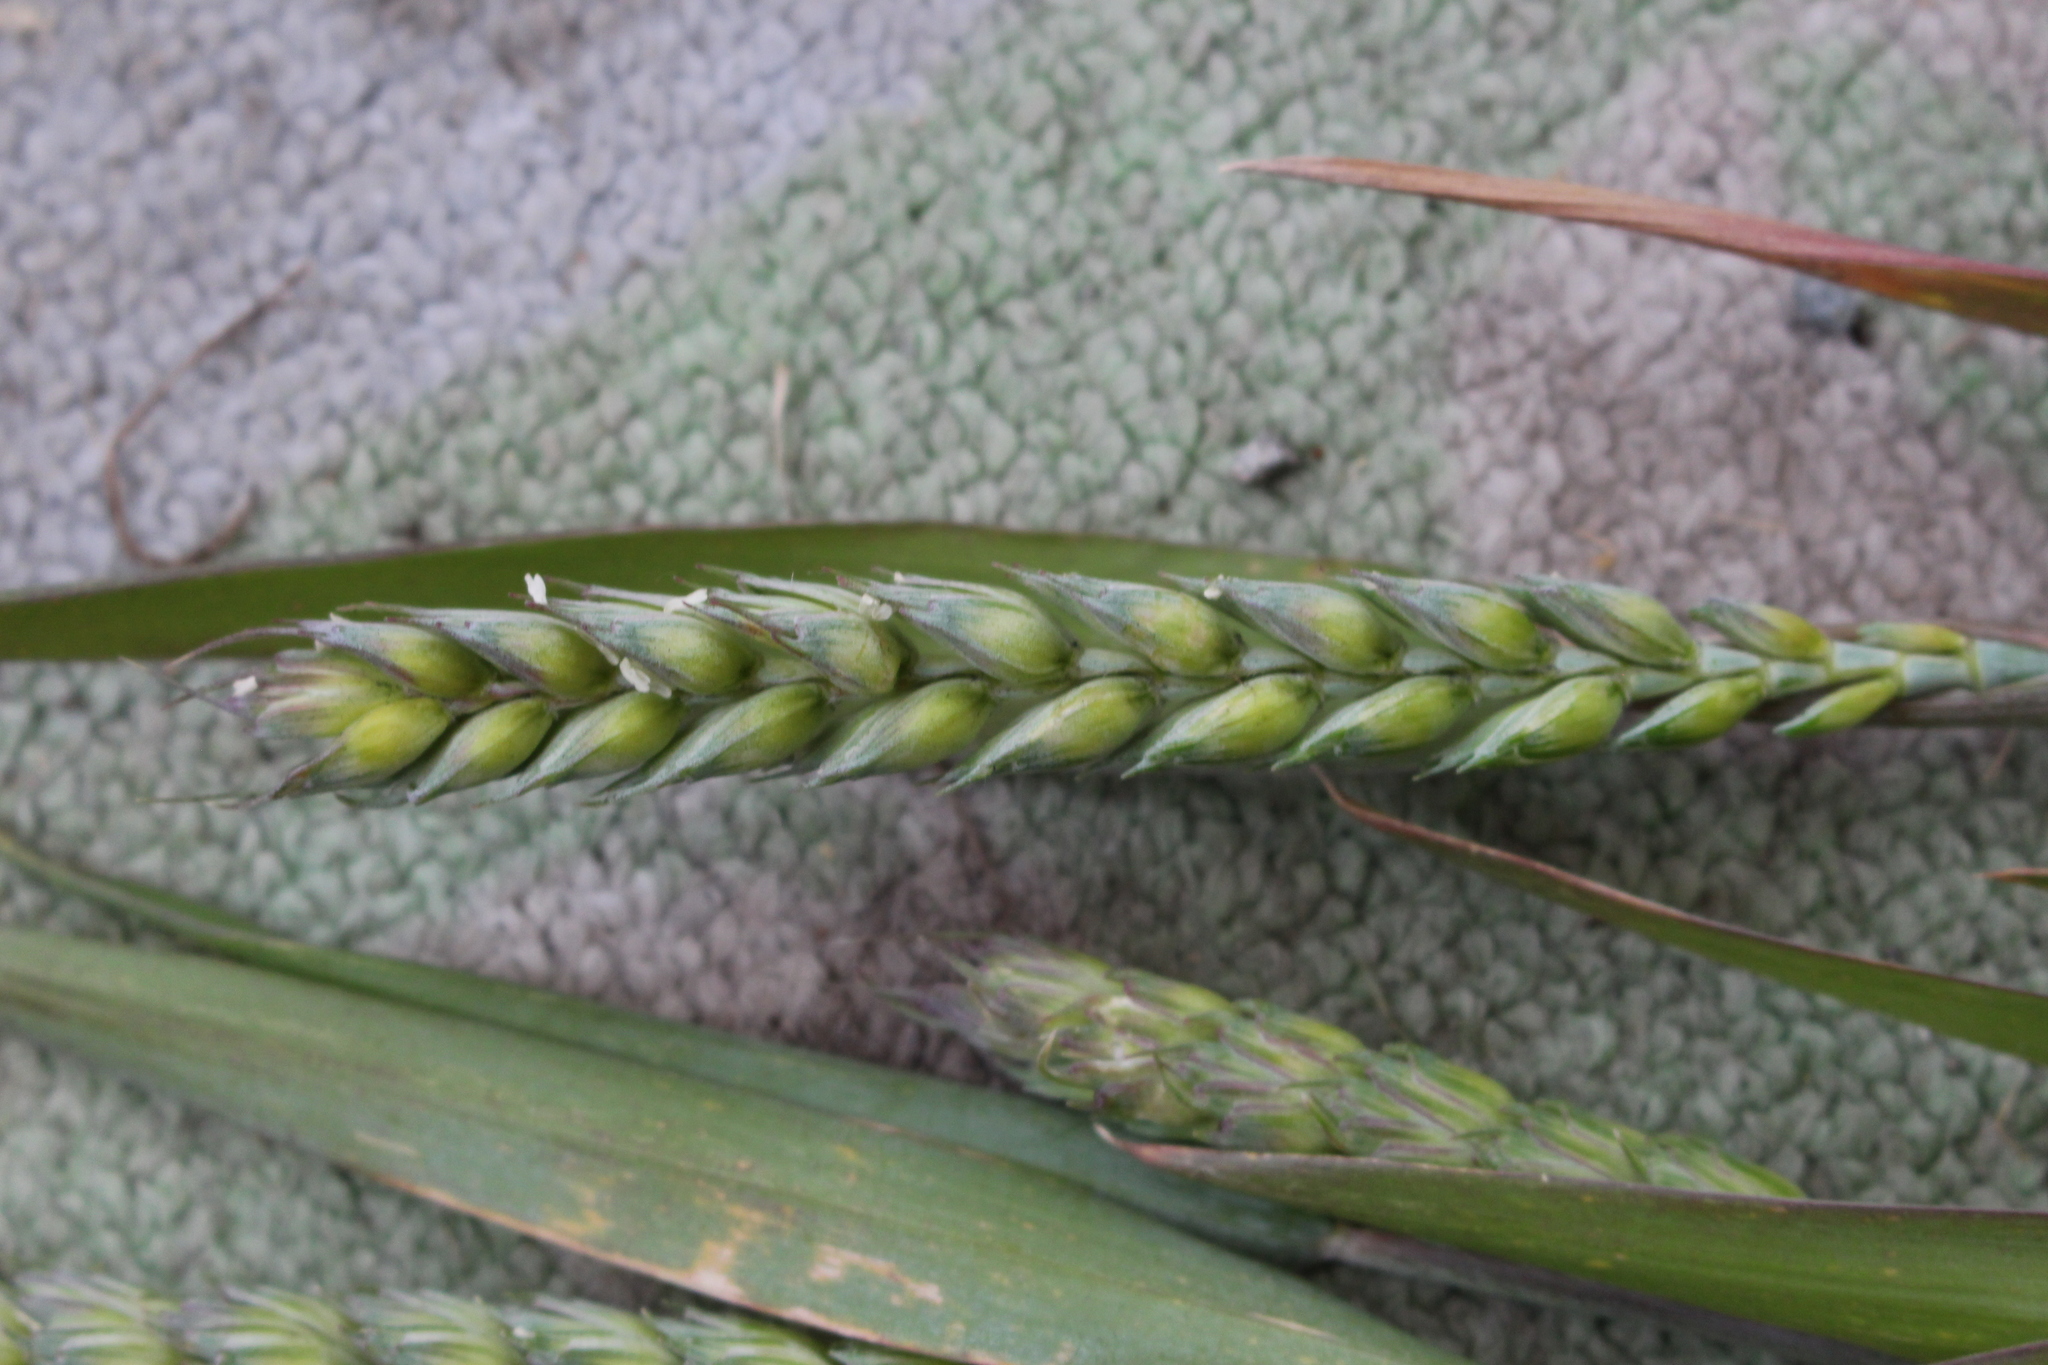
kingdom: Plantae
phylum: Tracheophyta
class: Liliopsida
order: Poales
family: Poaceae
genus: Triticum
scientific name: Triticum aestivum
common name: Common wheat
